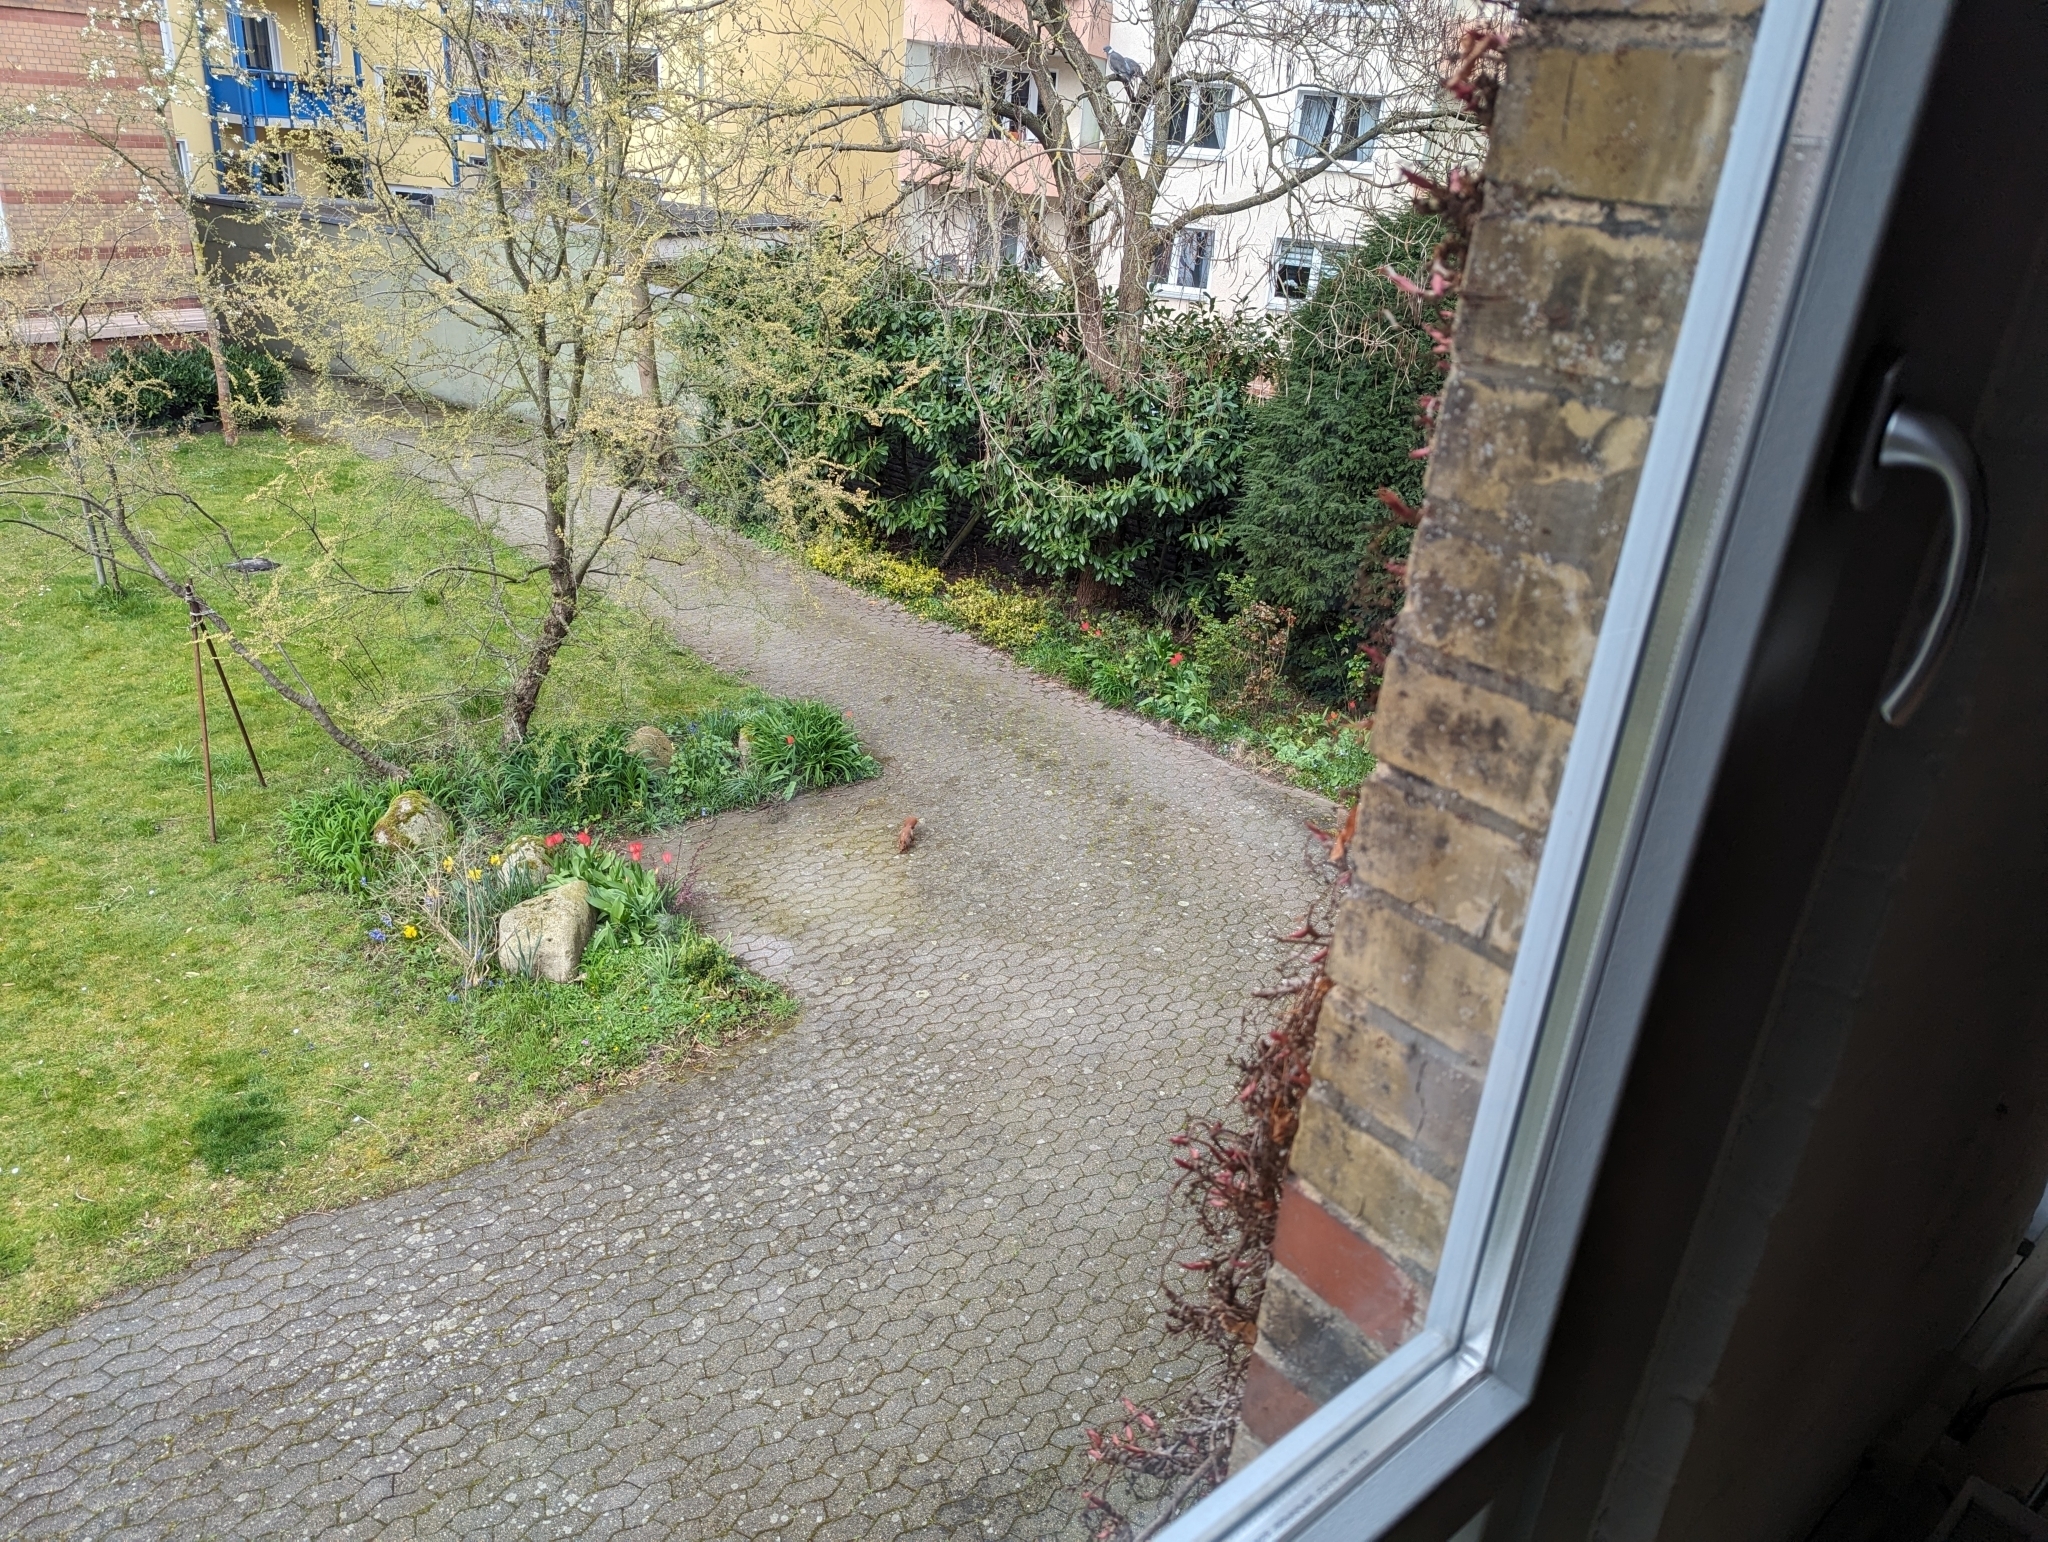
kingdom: Animalia
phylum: Chordata
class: Mammalia
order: Rodentia
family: Sciuridae
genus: Sciurus
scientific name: Sciurus vulgaris
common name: Eurasian red squirrel
